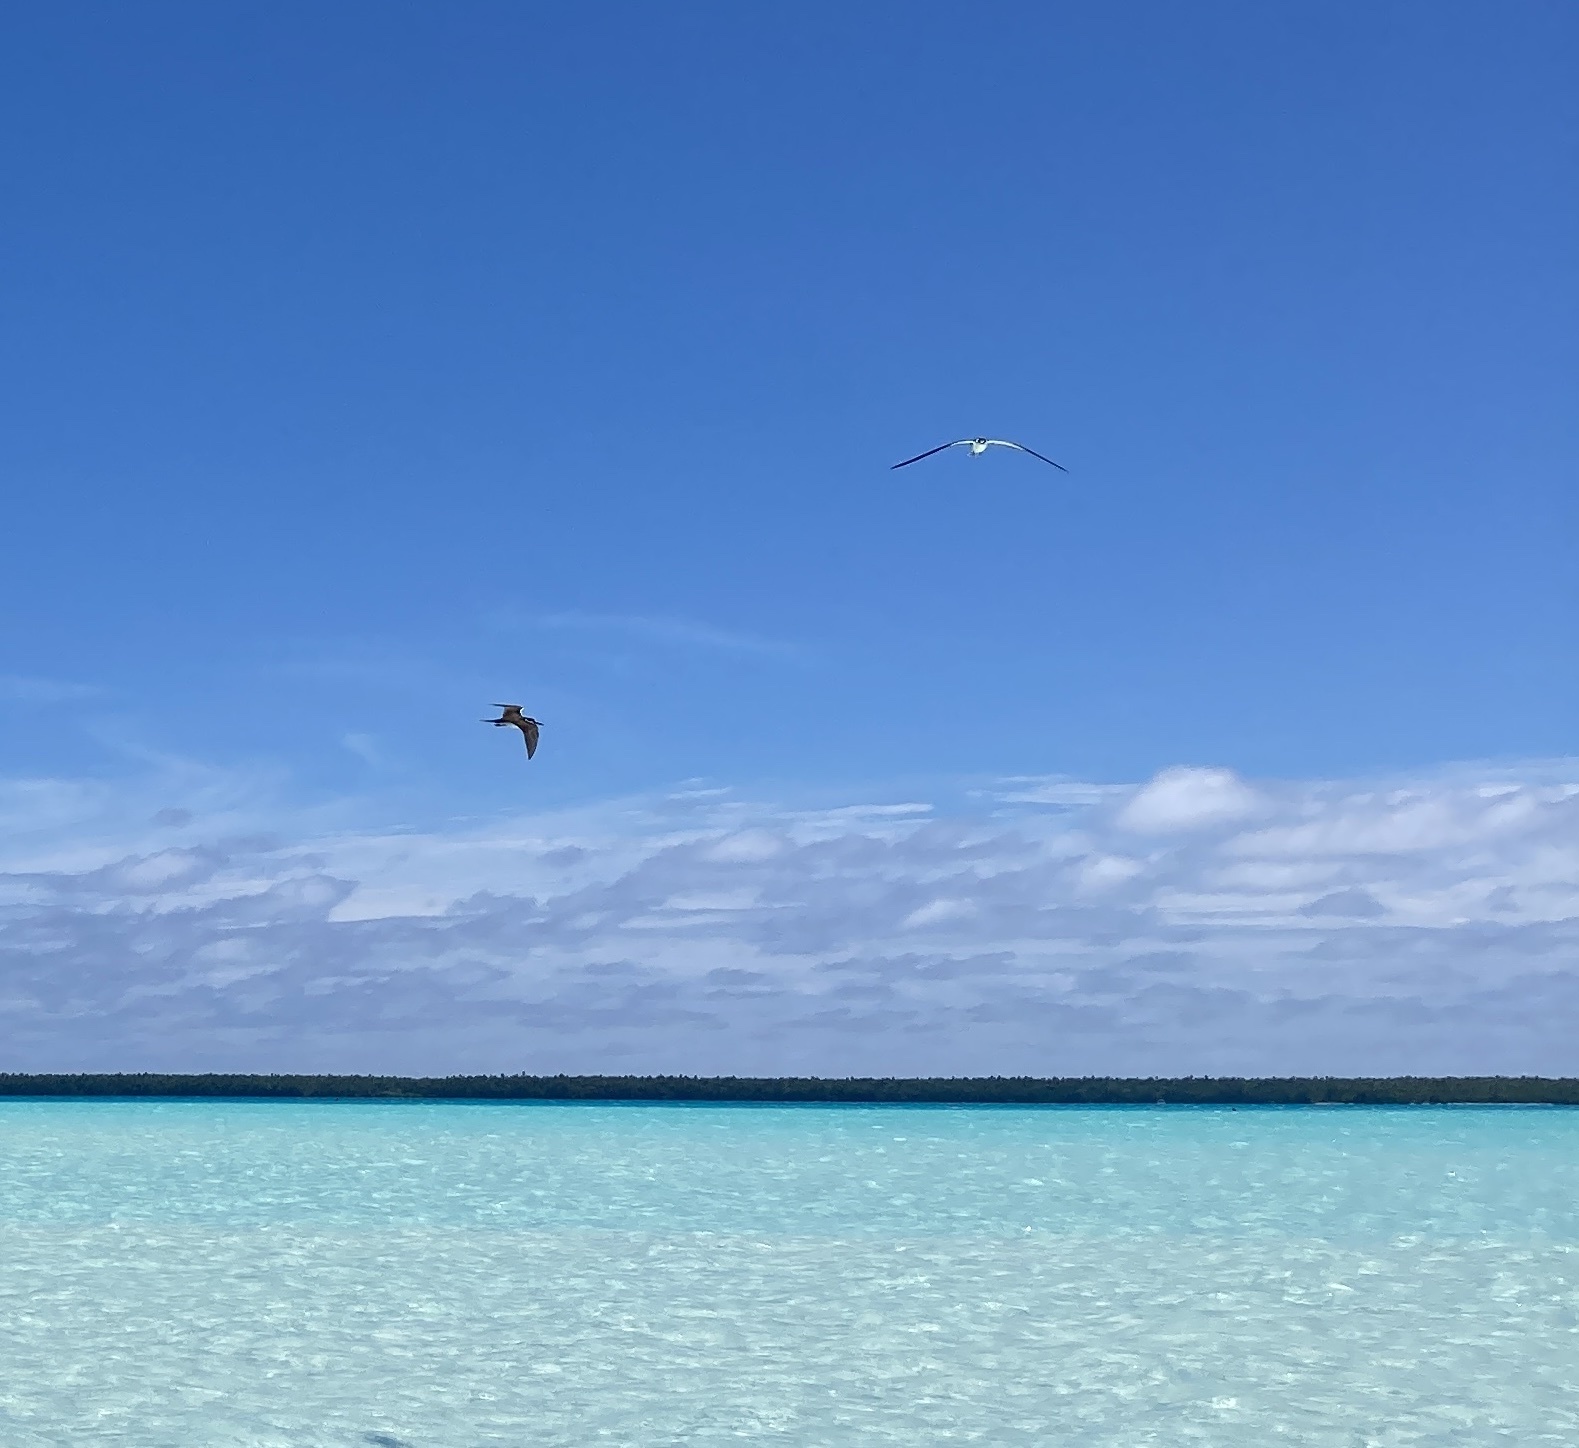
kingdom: Animalia
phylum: Chordata
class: Aves
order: Charadriiformes
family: Laridae
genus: Onychoprion
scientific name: Onychoprion fuscatus
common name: Sooty tern
